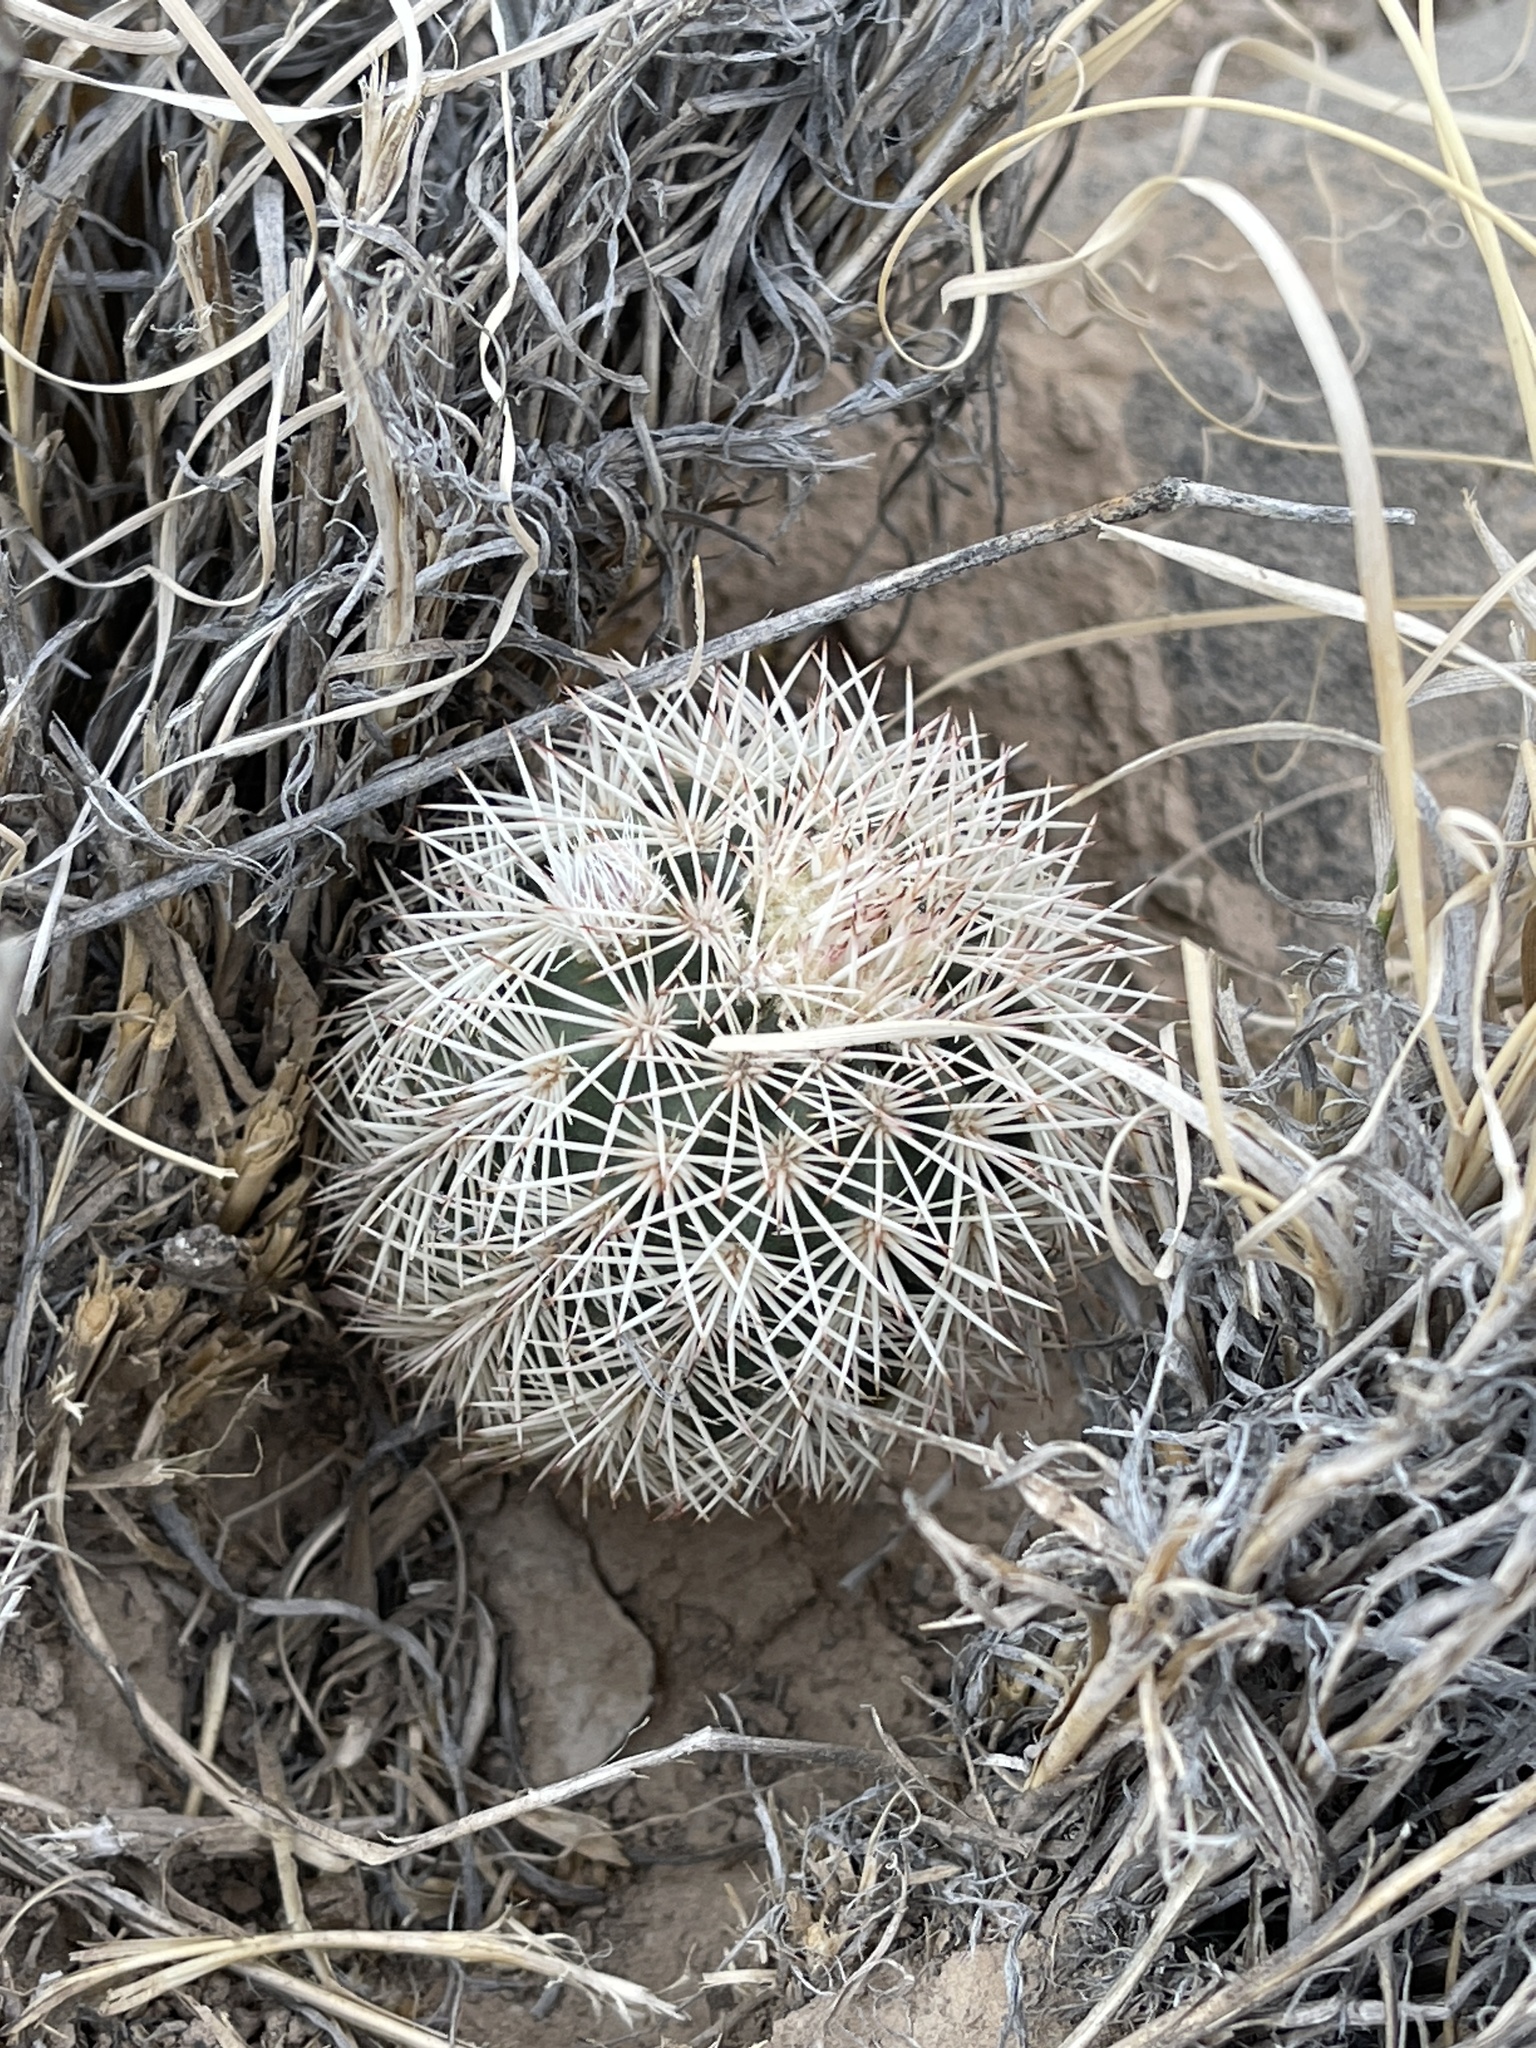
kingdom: Plantae
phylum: Tracheophyta
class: Magnoliopsida
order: Caryophyllales
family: Cactaceae
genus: Echinocereus
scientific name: Echinocereus dasyacanthus
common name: Spiny hedgehog cactus
